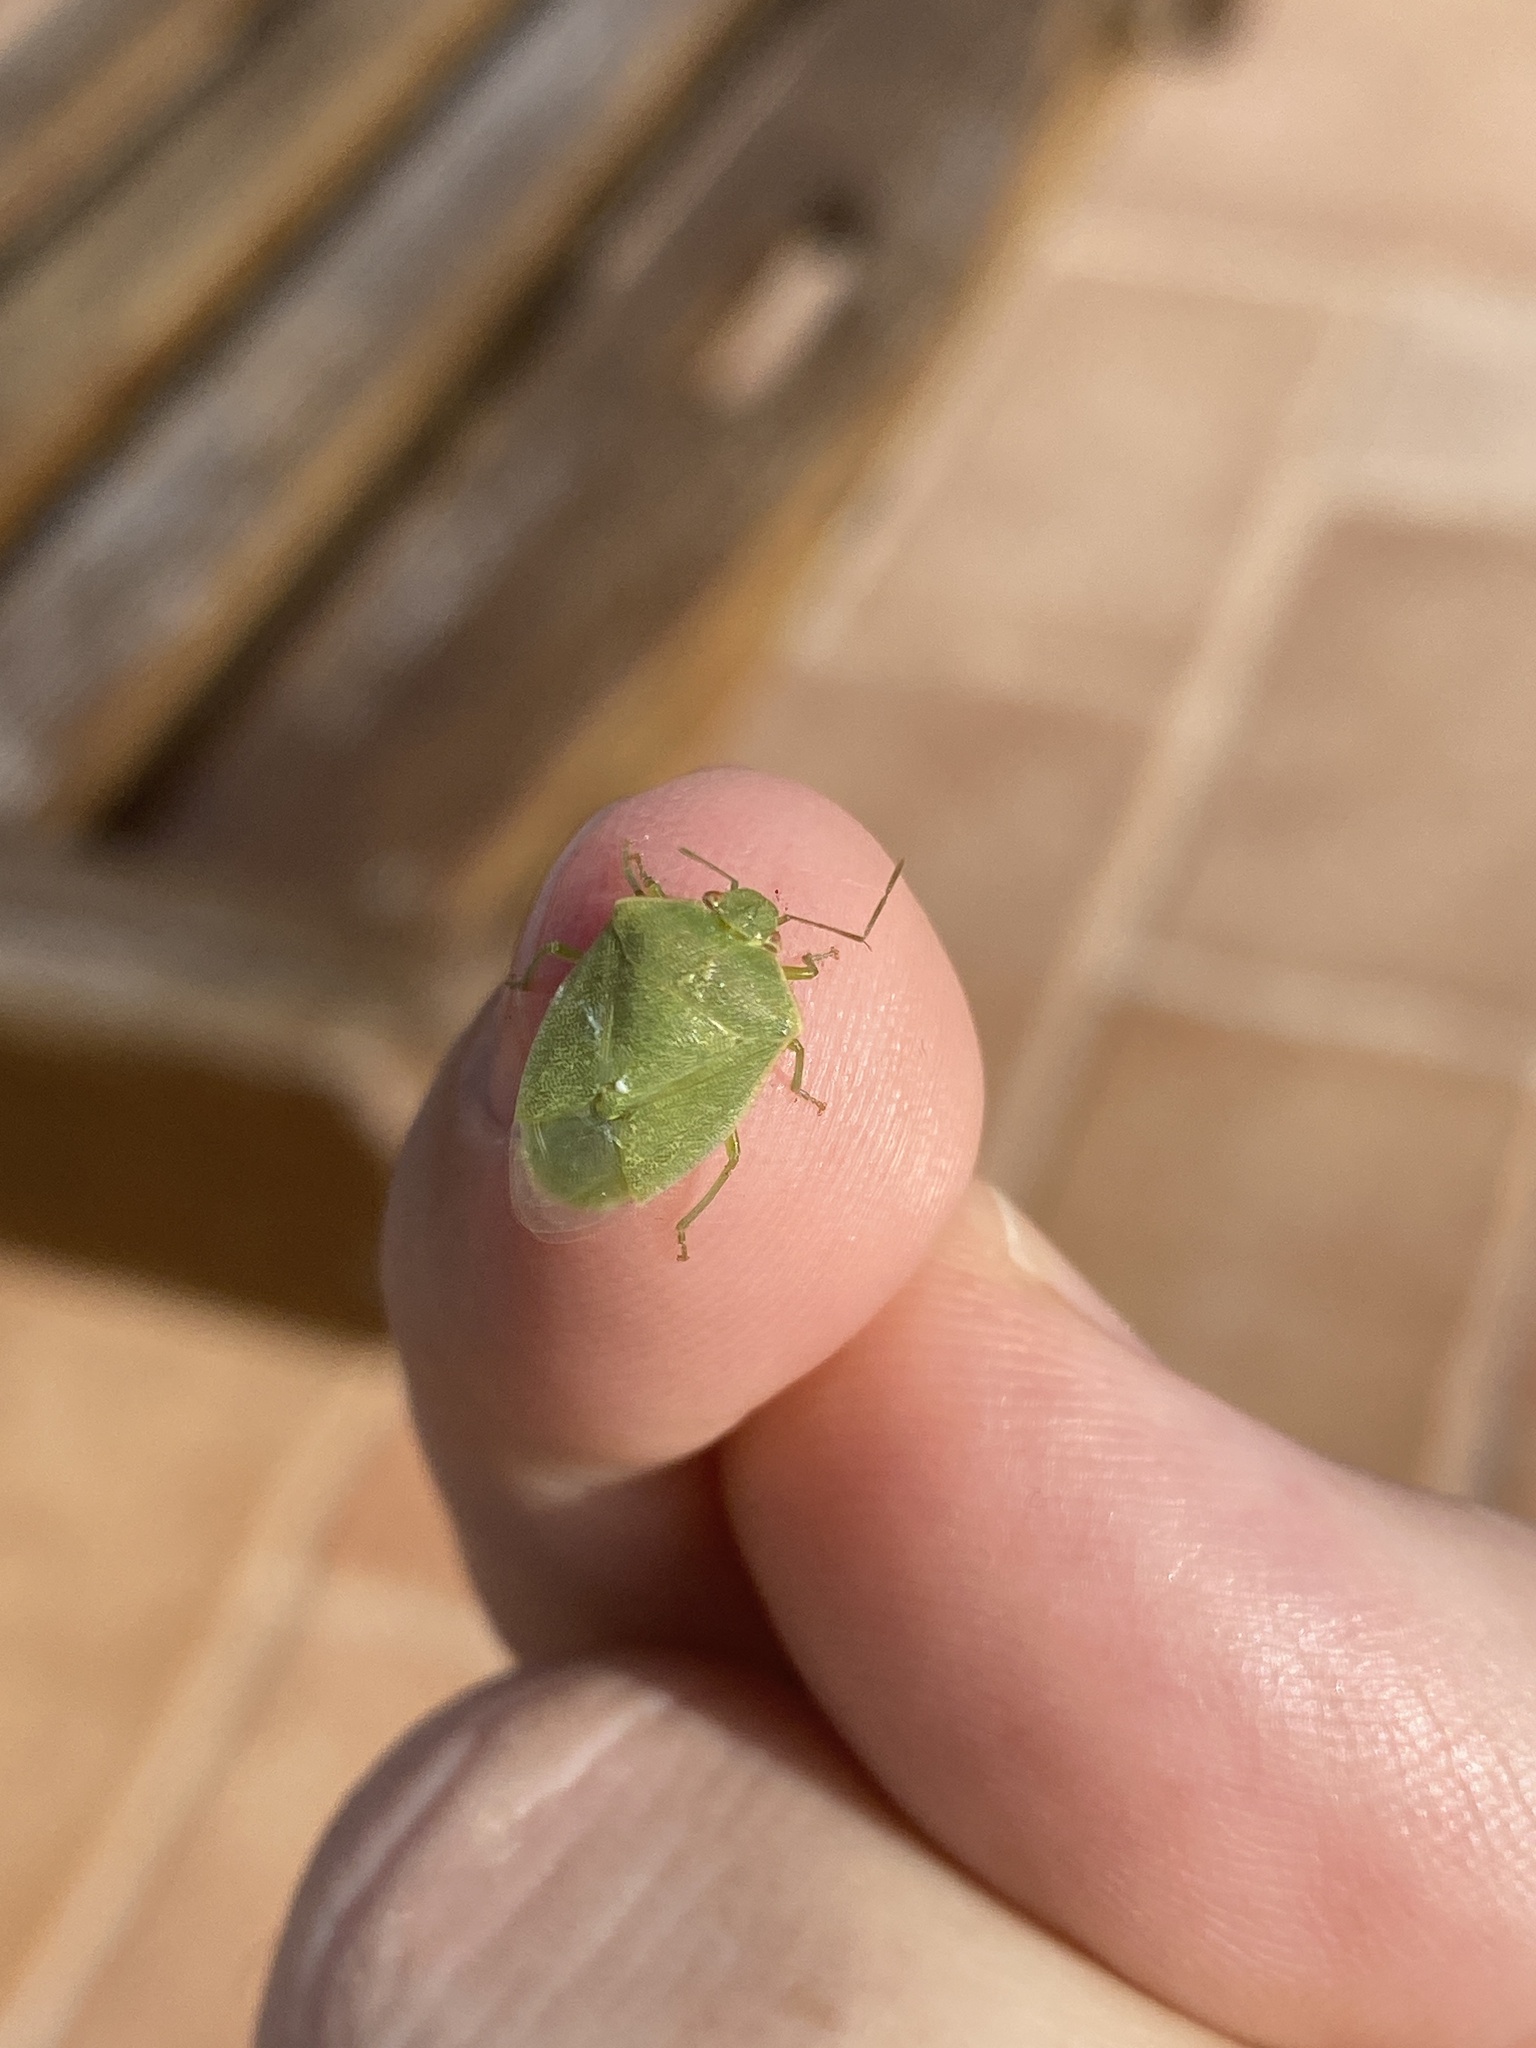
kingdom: Animalia
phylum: Arthropoda
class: Insecta
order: Hemiptera
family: Pentatomidae
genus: Acrosternum
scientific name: Acrosternum millierei
